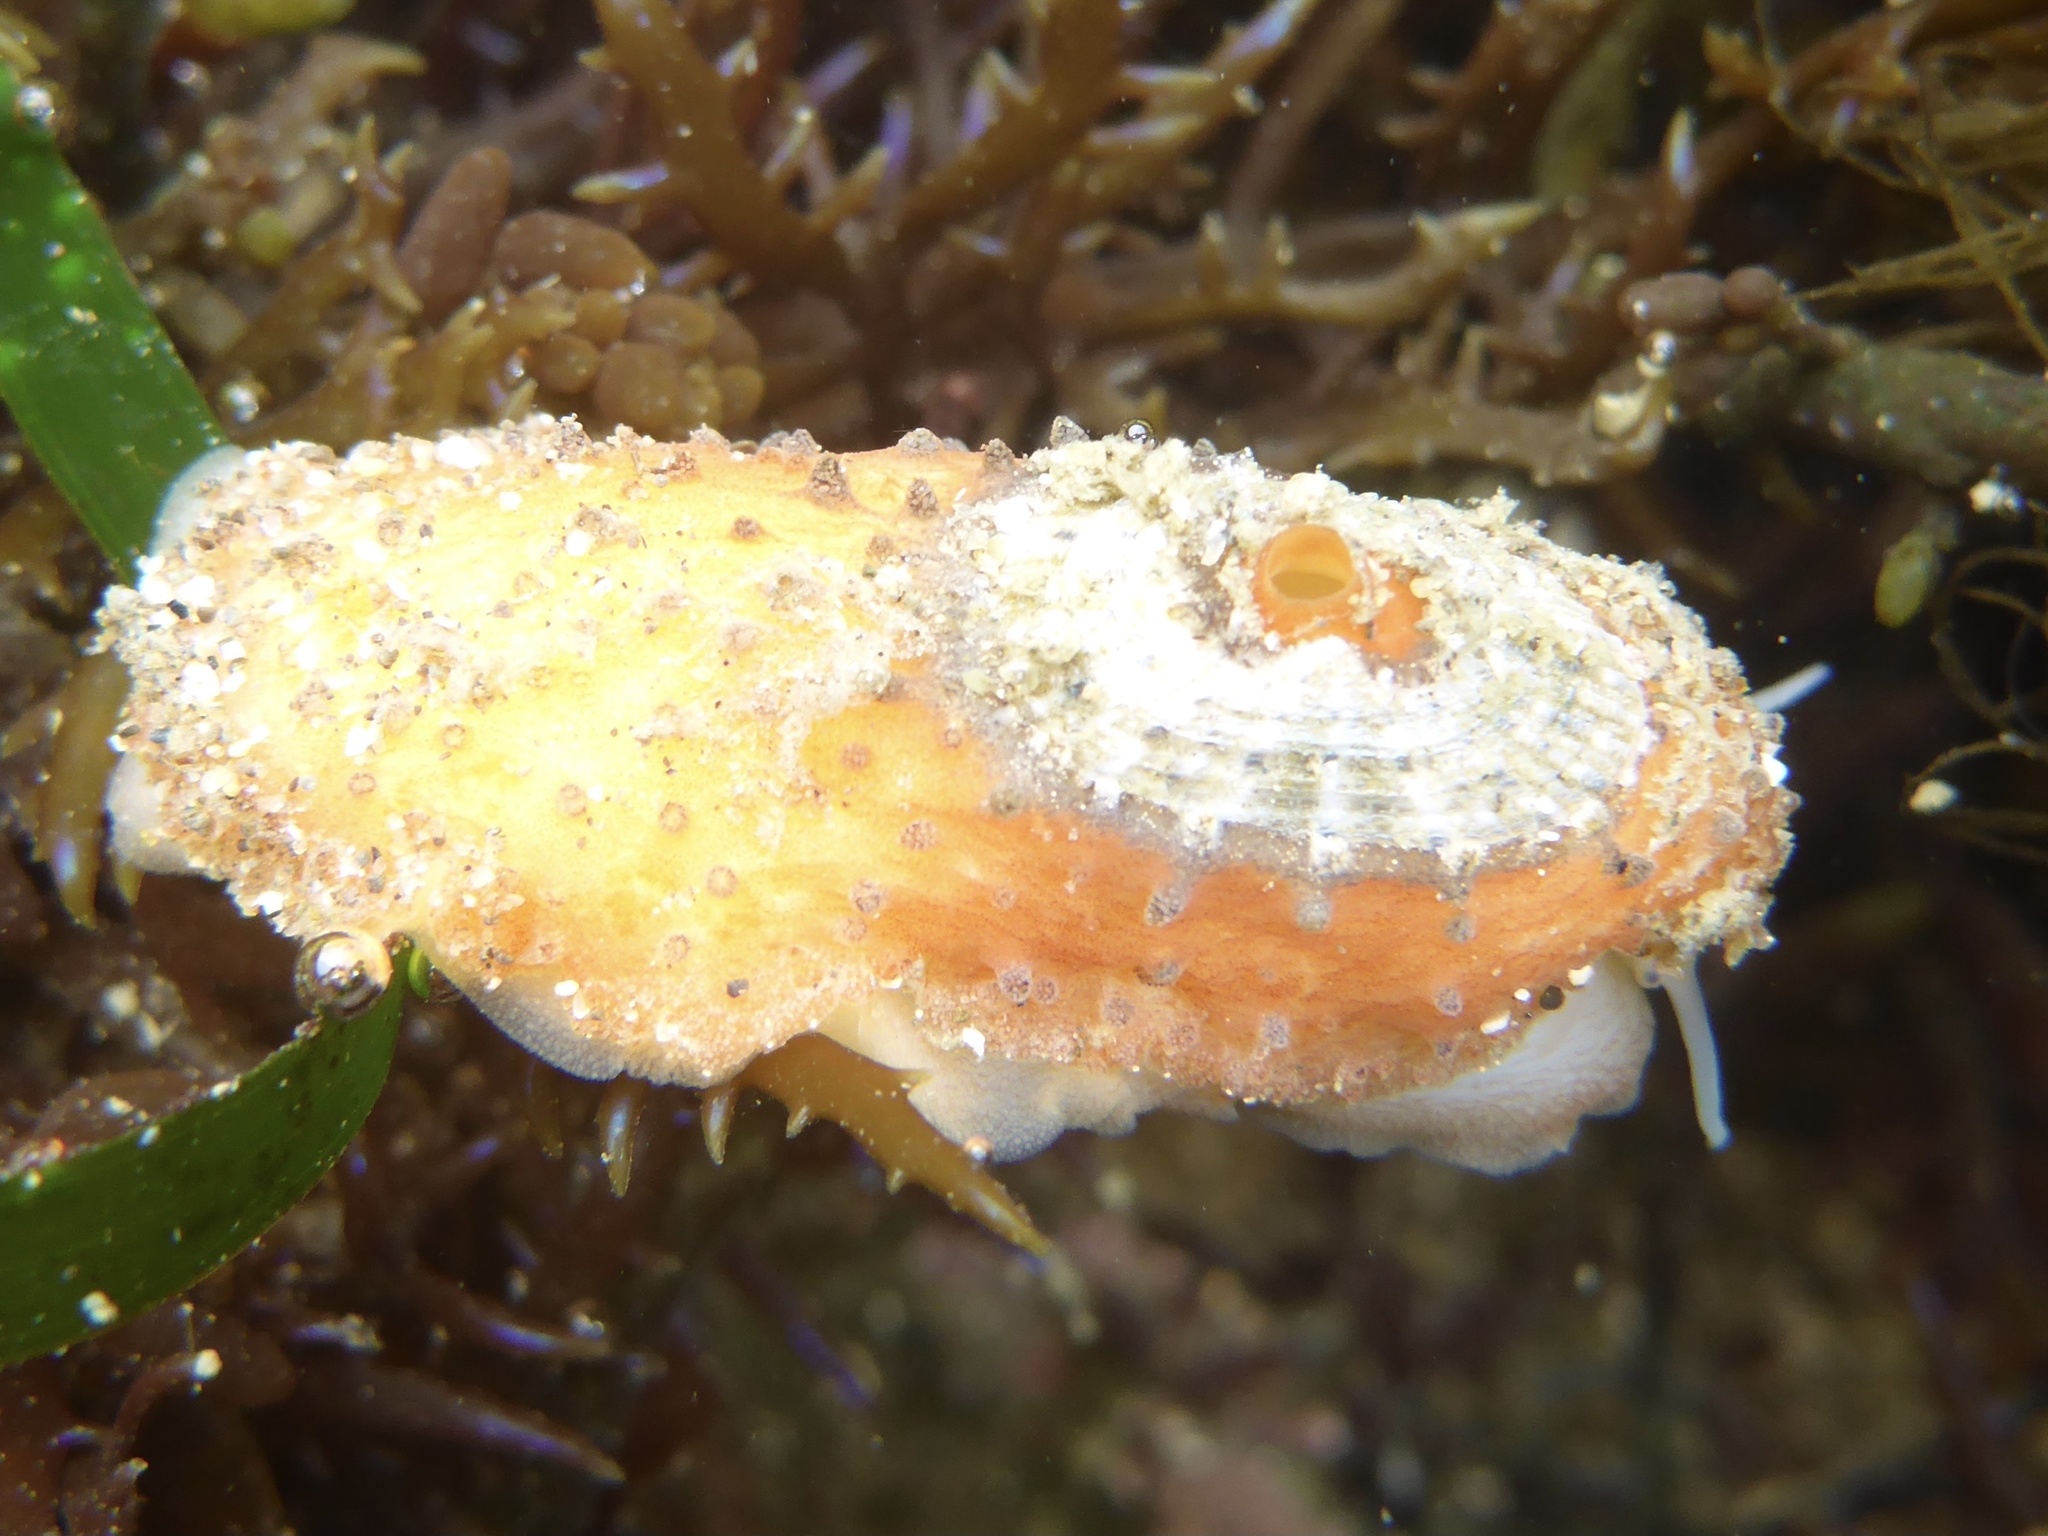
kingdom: Animalia
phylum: Mollusca
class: Gastropoda
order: Lepetellida
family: Fissurellidae
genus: Fissurellidea
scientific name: Fissurellidea bimaculata
